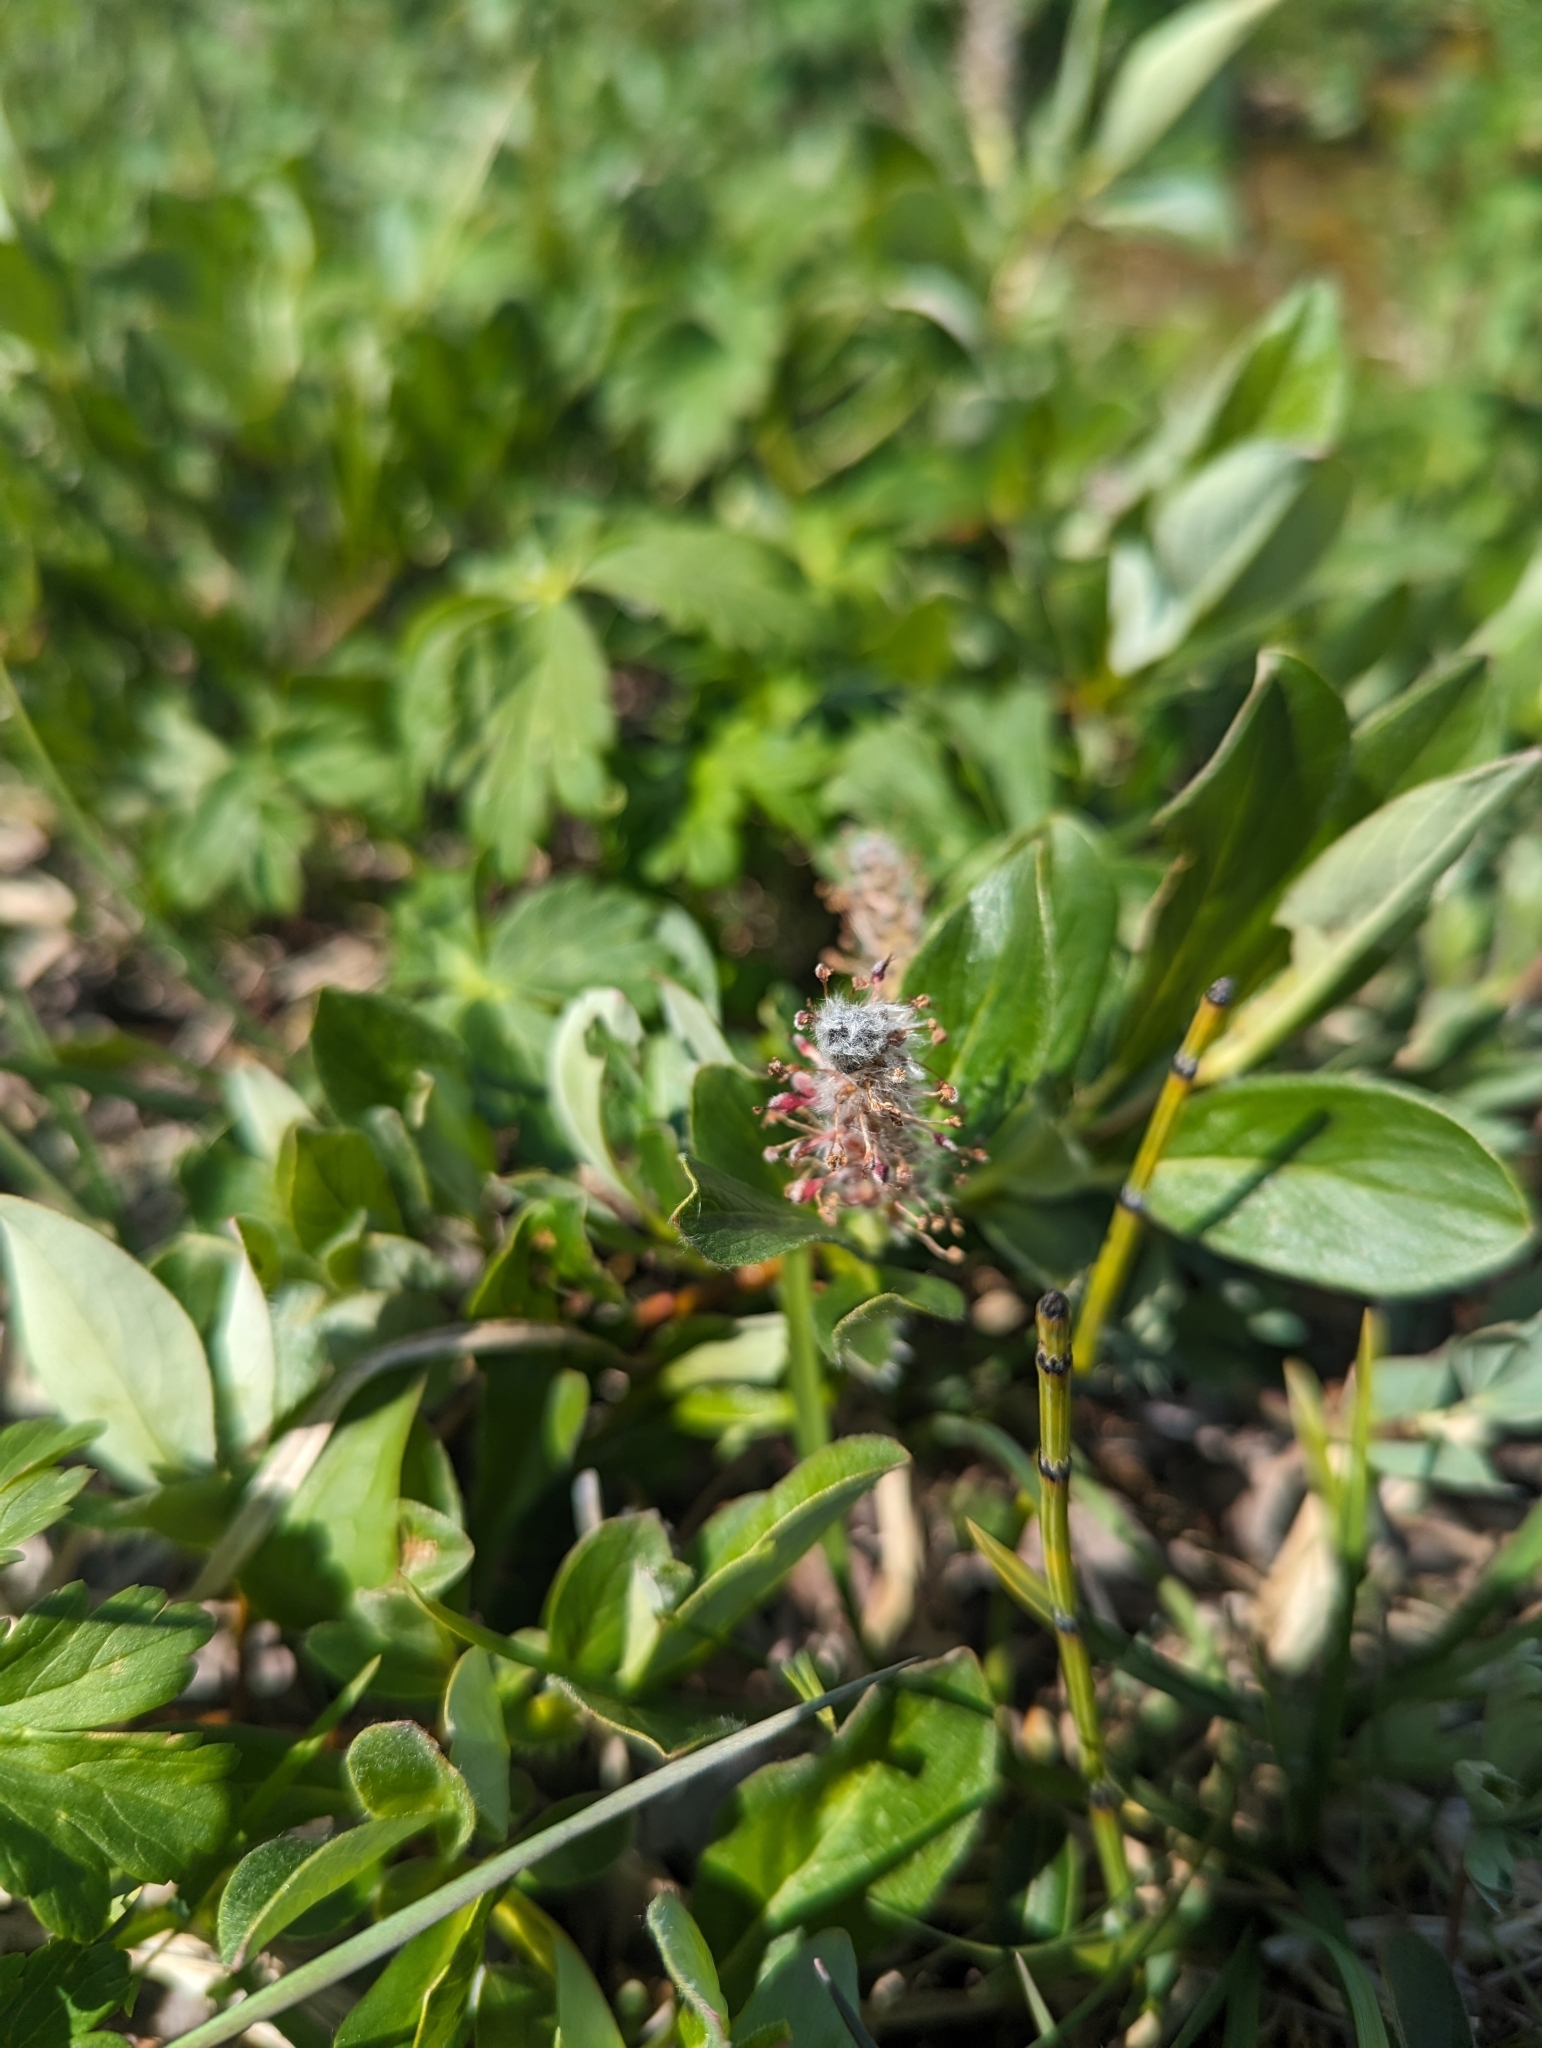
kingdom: Plantae
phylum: Tracheophyta
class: Magnoliopsida
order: Malpighiales
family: Salicaceae
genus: Salix
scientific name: Salix arctica
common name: Arctic willow
